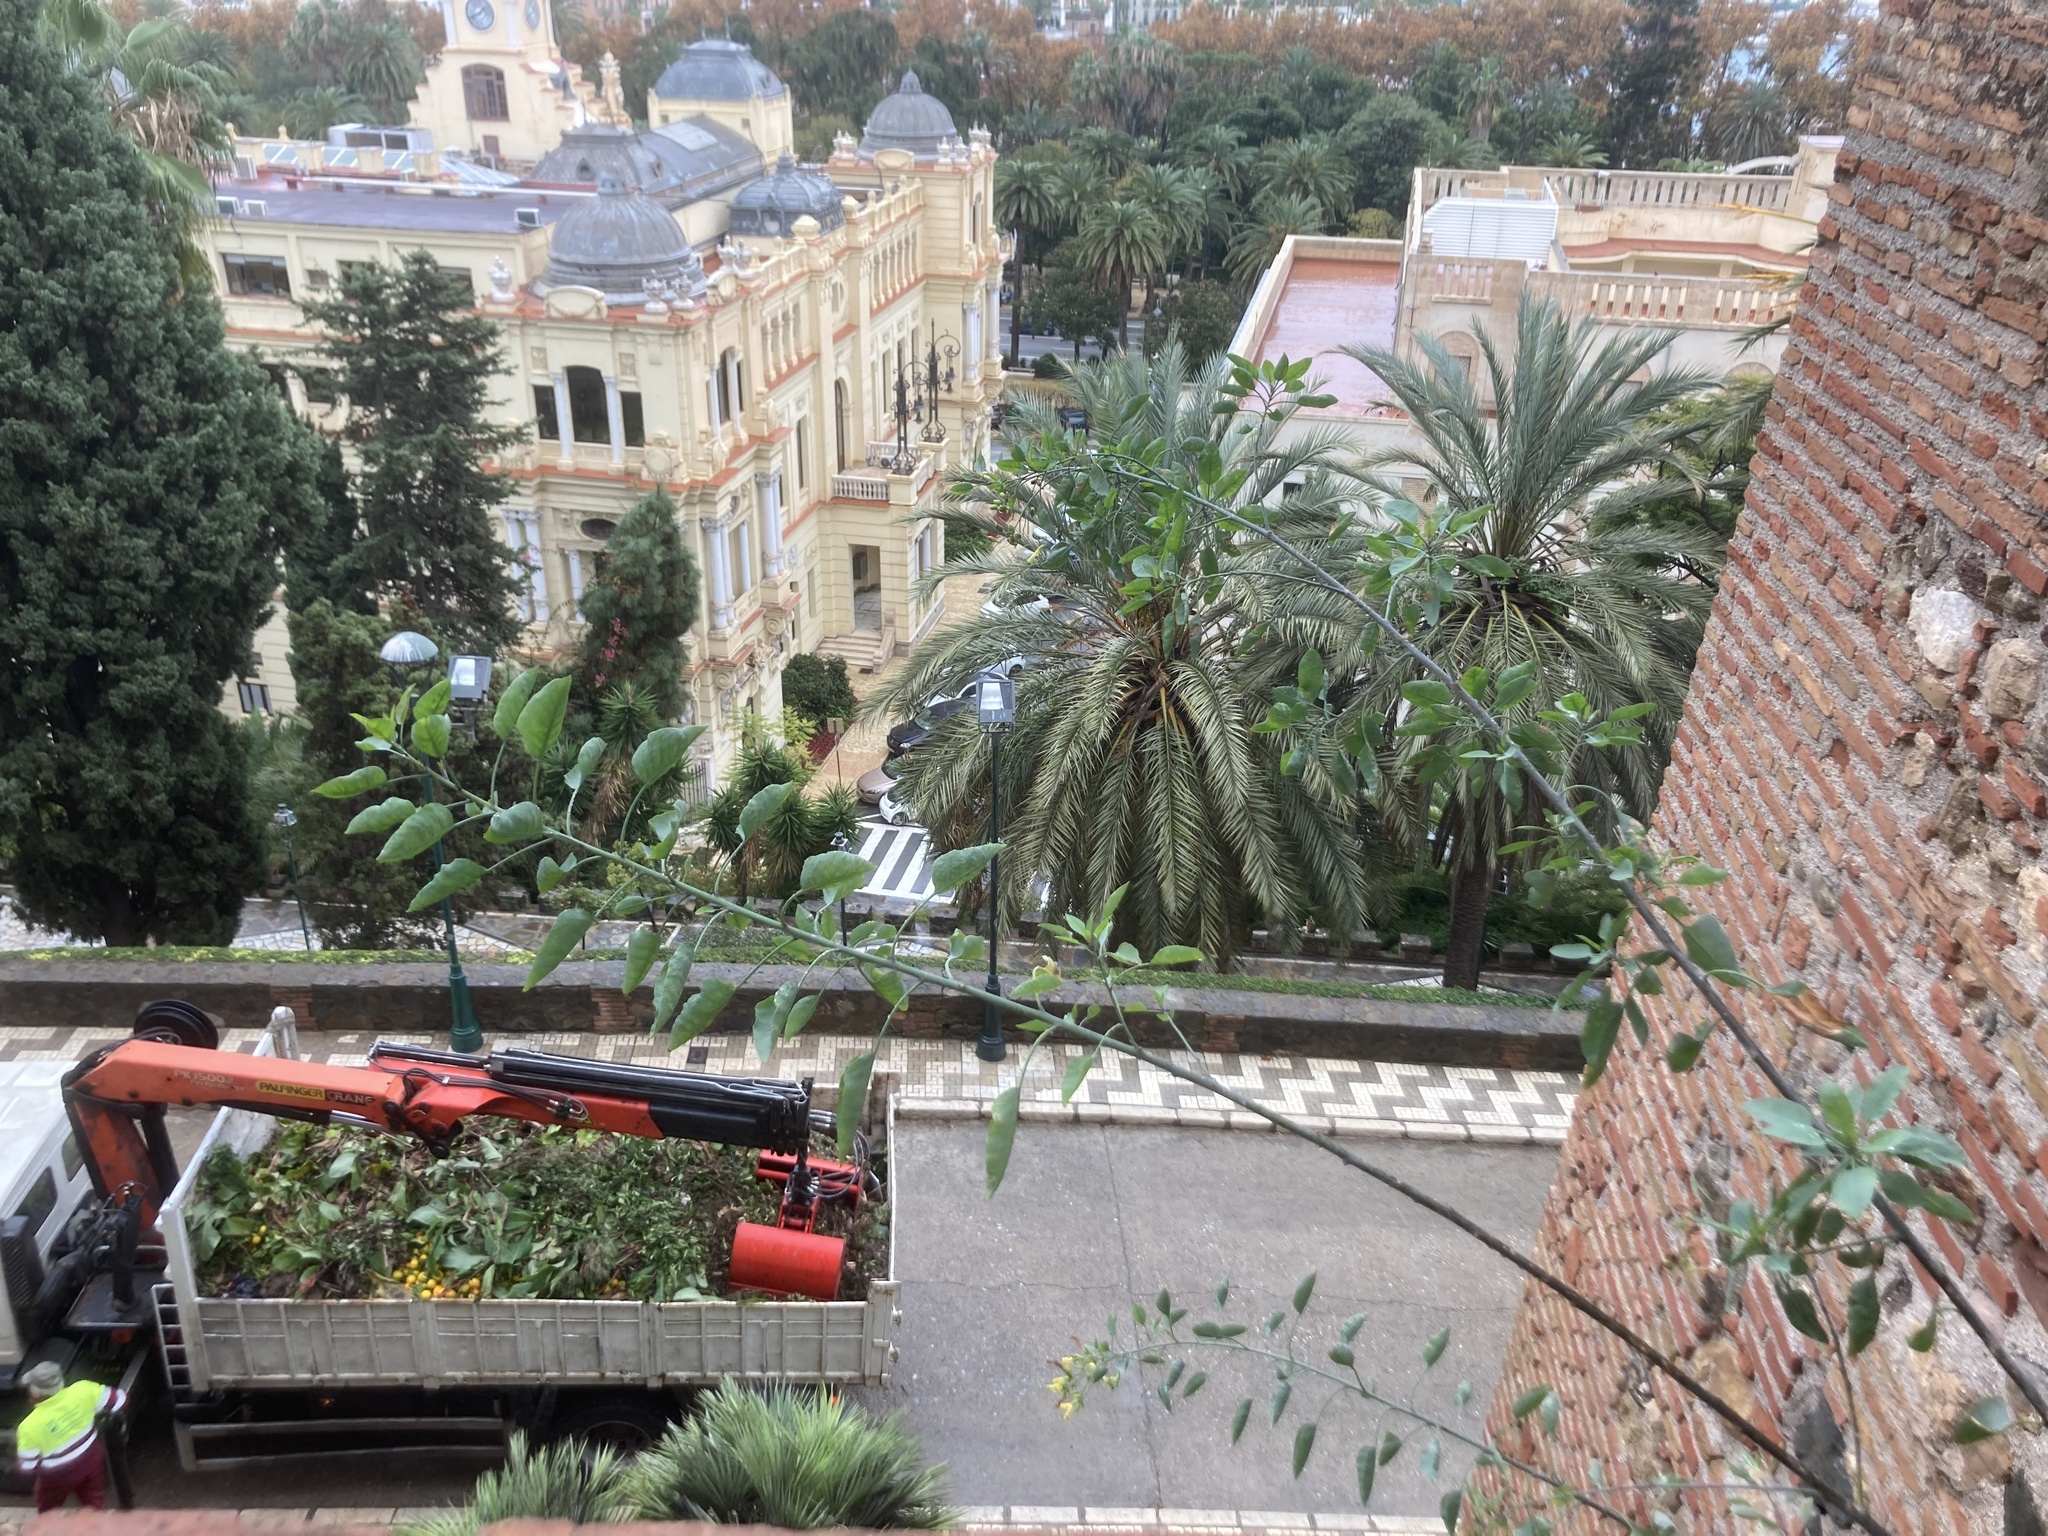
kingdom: Plantae
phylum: Tracheophyta
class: Magnoliopsida
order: Solanales
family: Solanaceae
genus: Nicotiana
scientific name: Nicotiana glauca
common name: Tree tobacco
